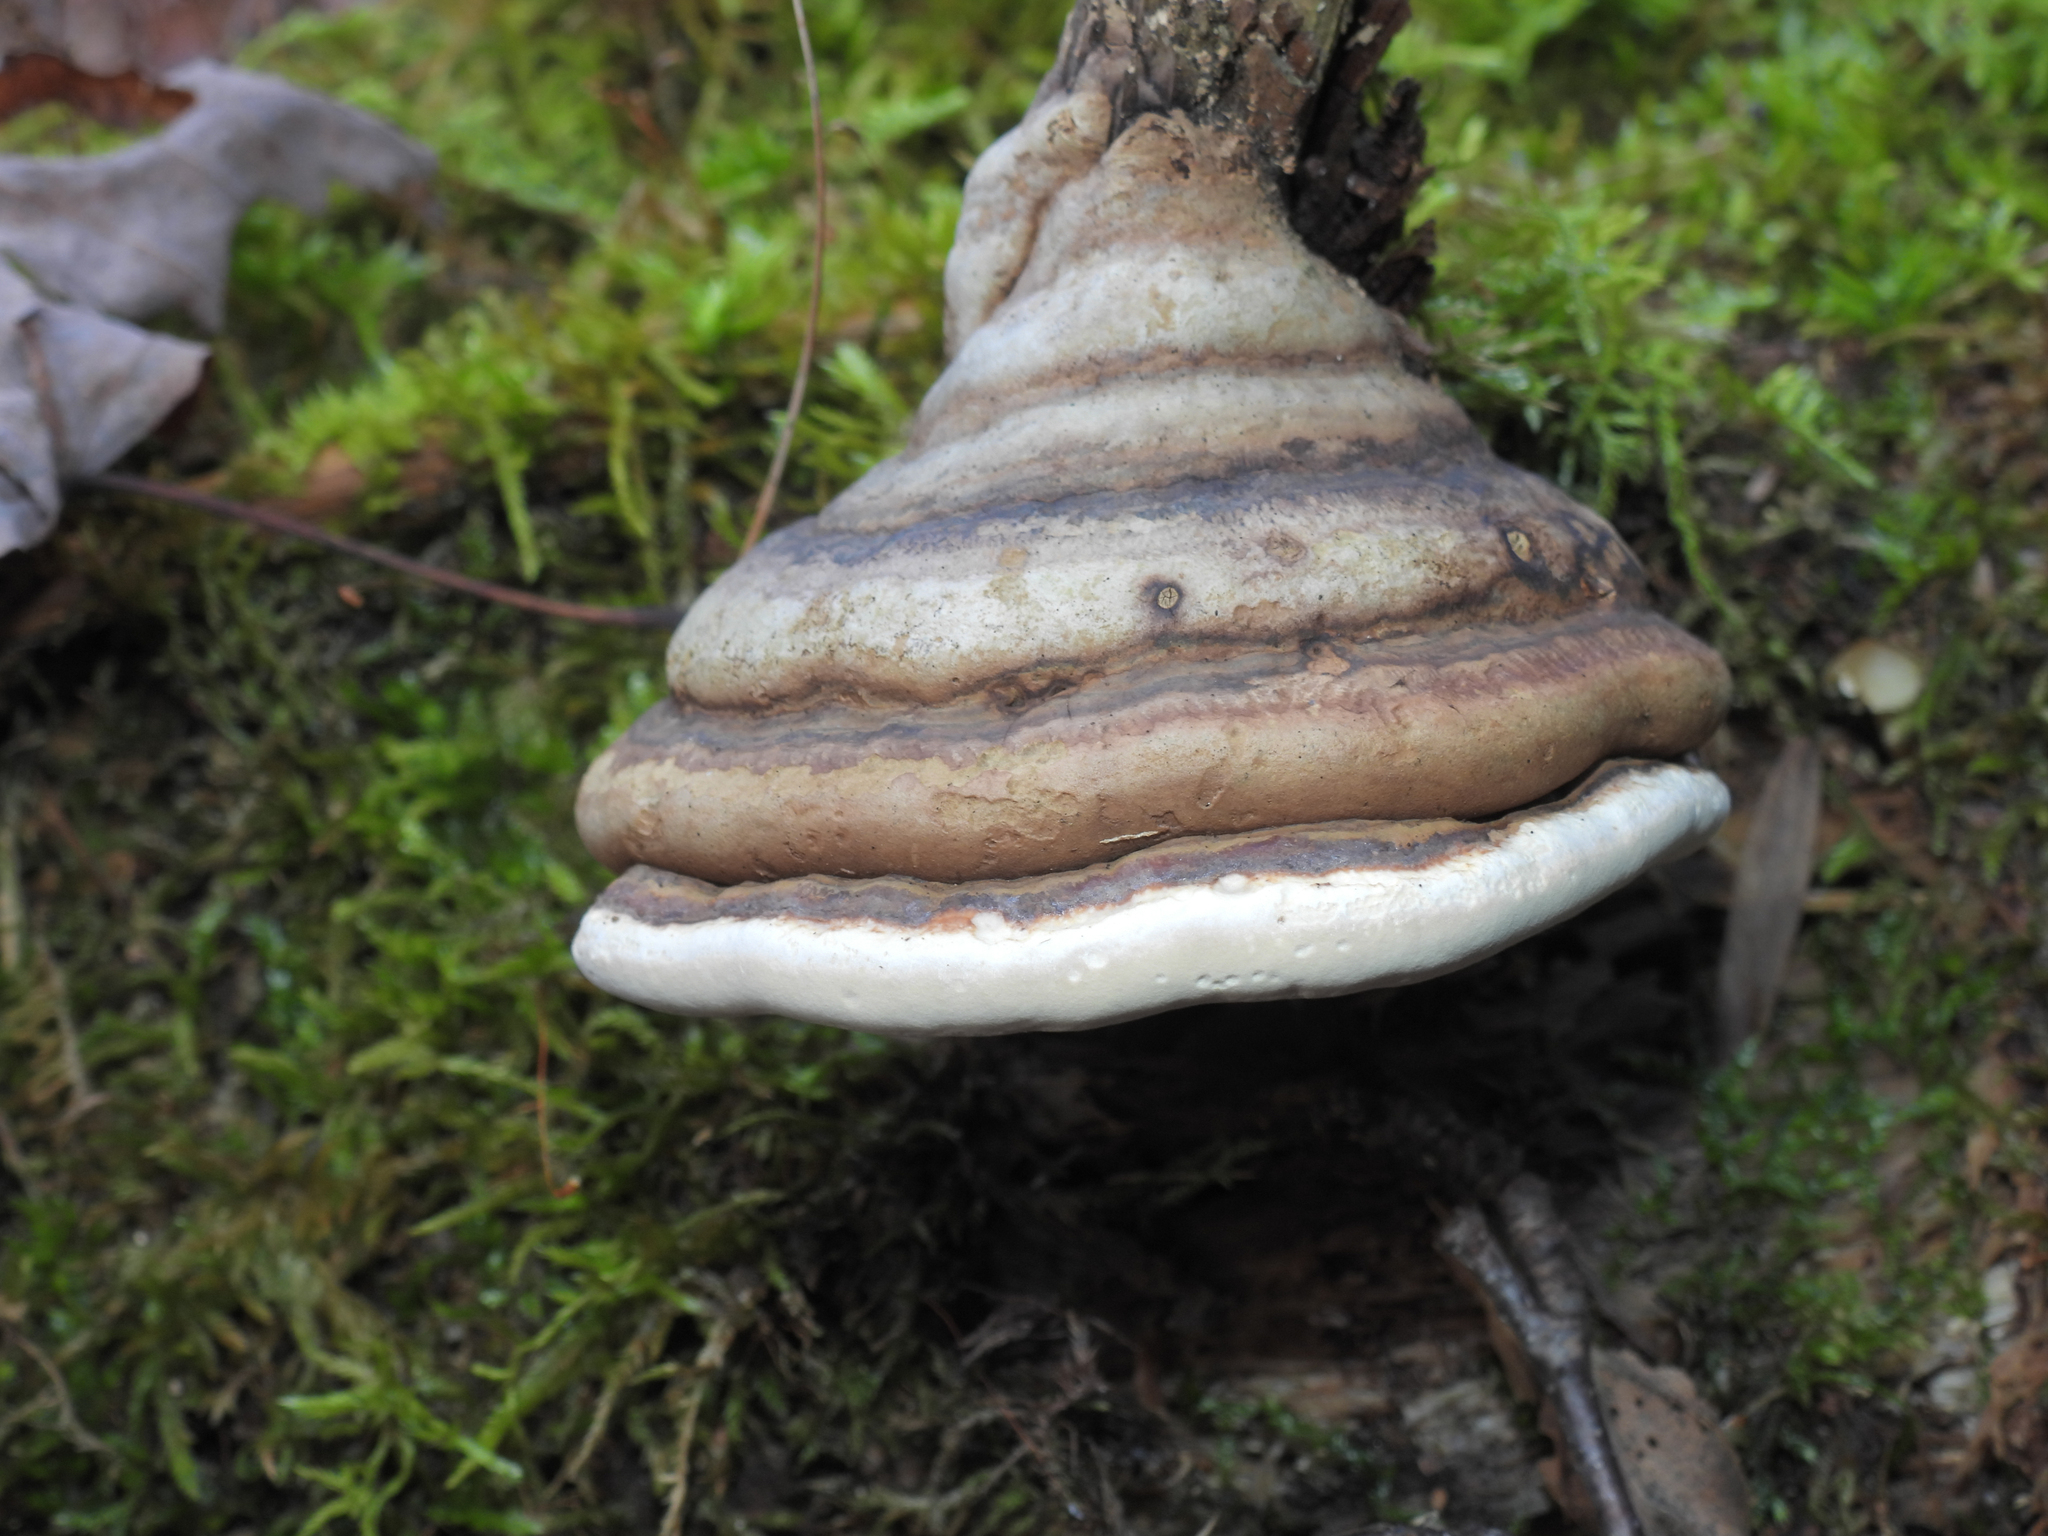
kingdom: Fungi
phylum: Basidiomycota
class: Agaricomycetes
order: Polyporales
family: Fomitopsidaceae
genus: Fomitopsis
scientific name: Fomitopsis ochracea
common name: American brown fomitopsis
